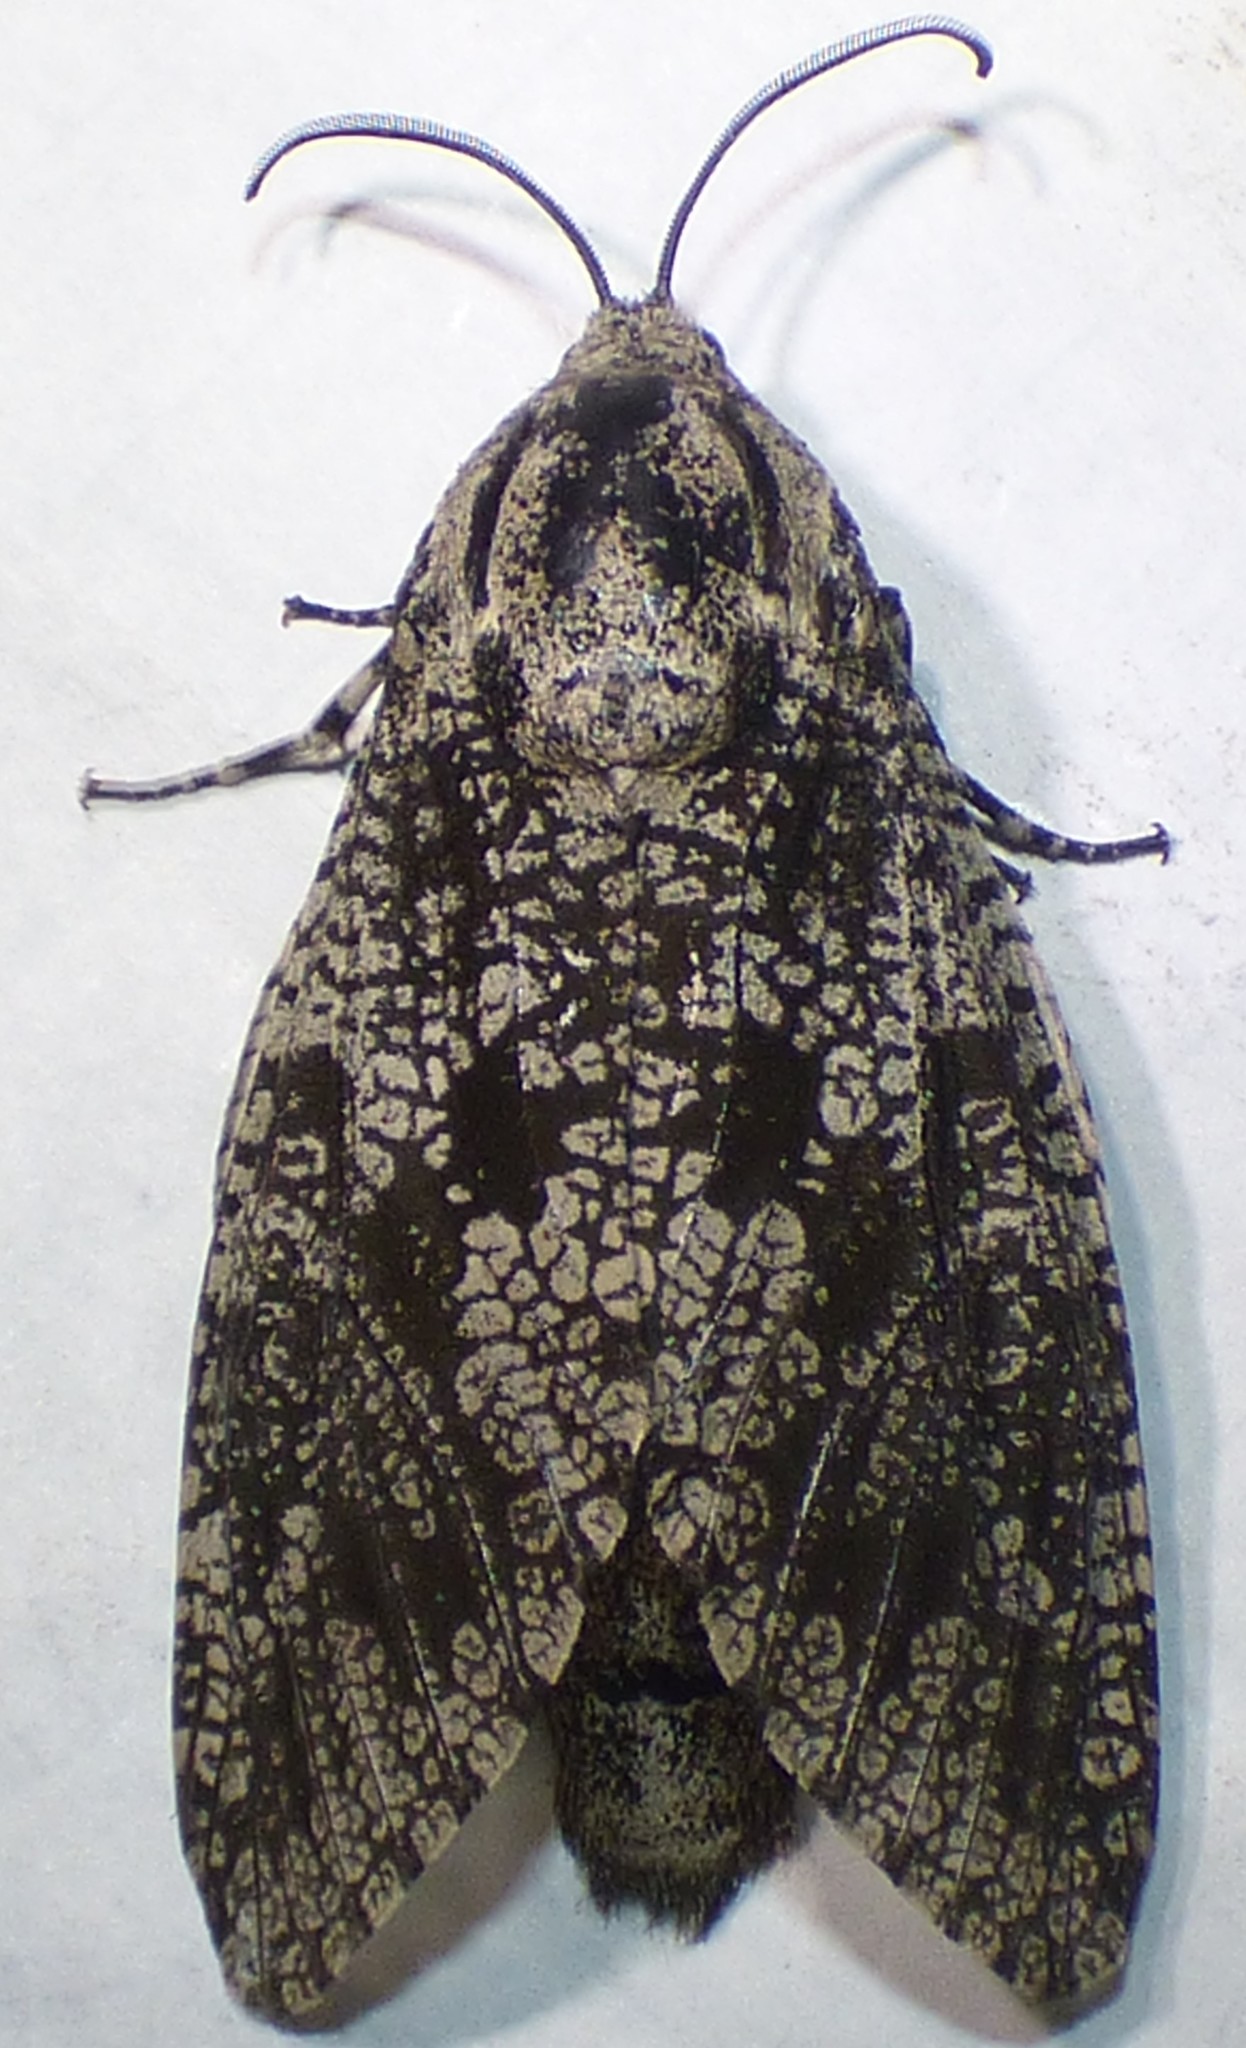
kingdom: Animalia
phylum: Arthropoda
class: Insecta
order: Lepidoptera
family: Cossidae
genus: Prionoxystus
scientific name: Prionoxystus robiniae
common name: Carpenterworm
